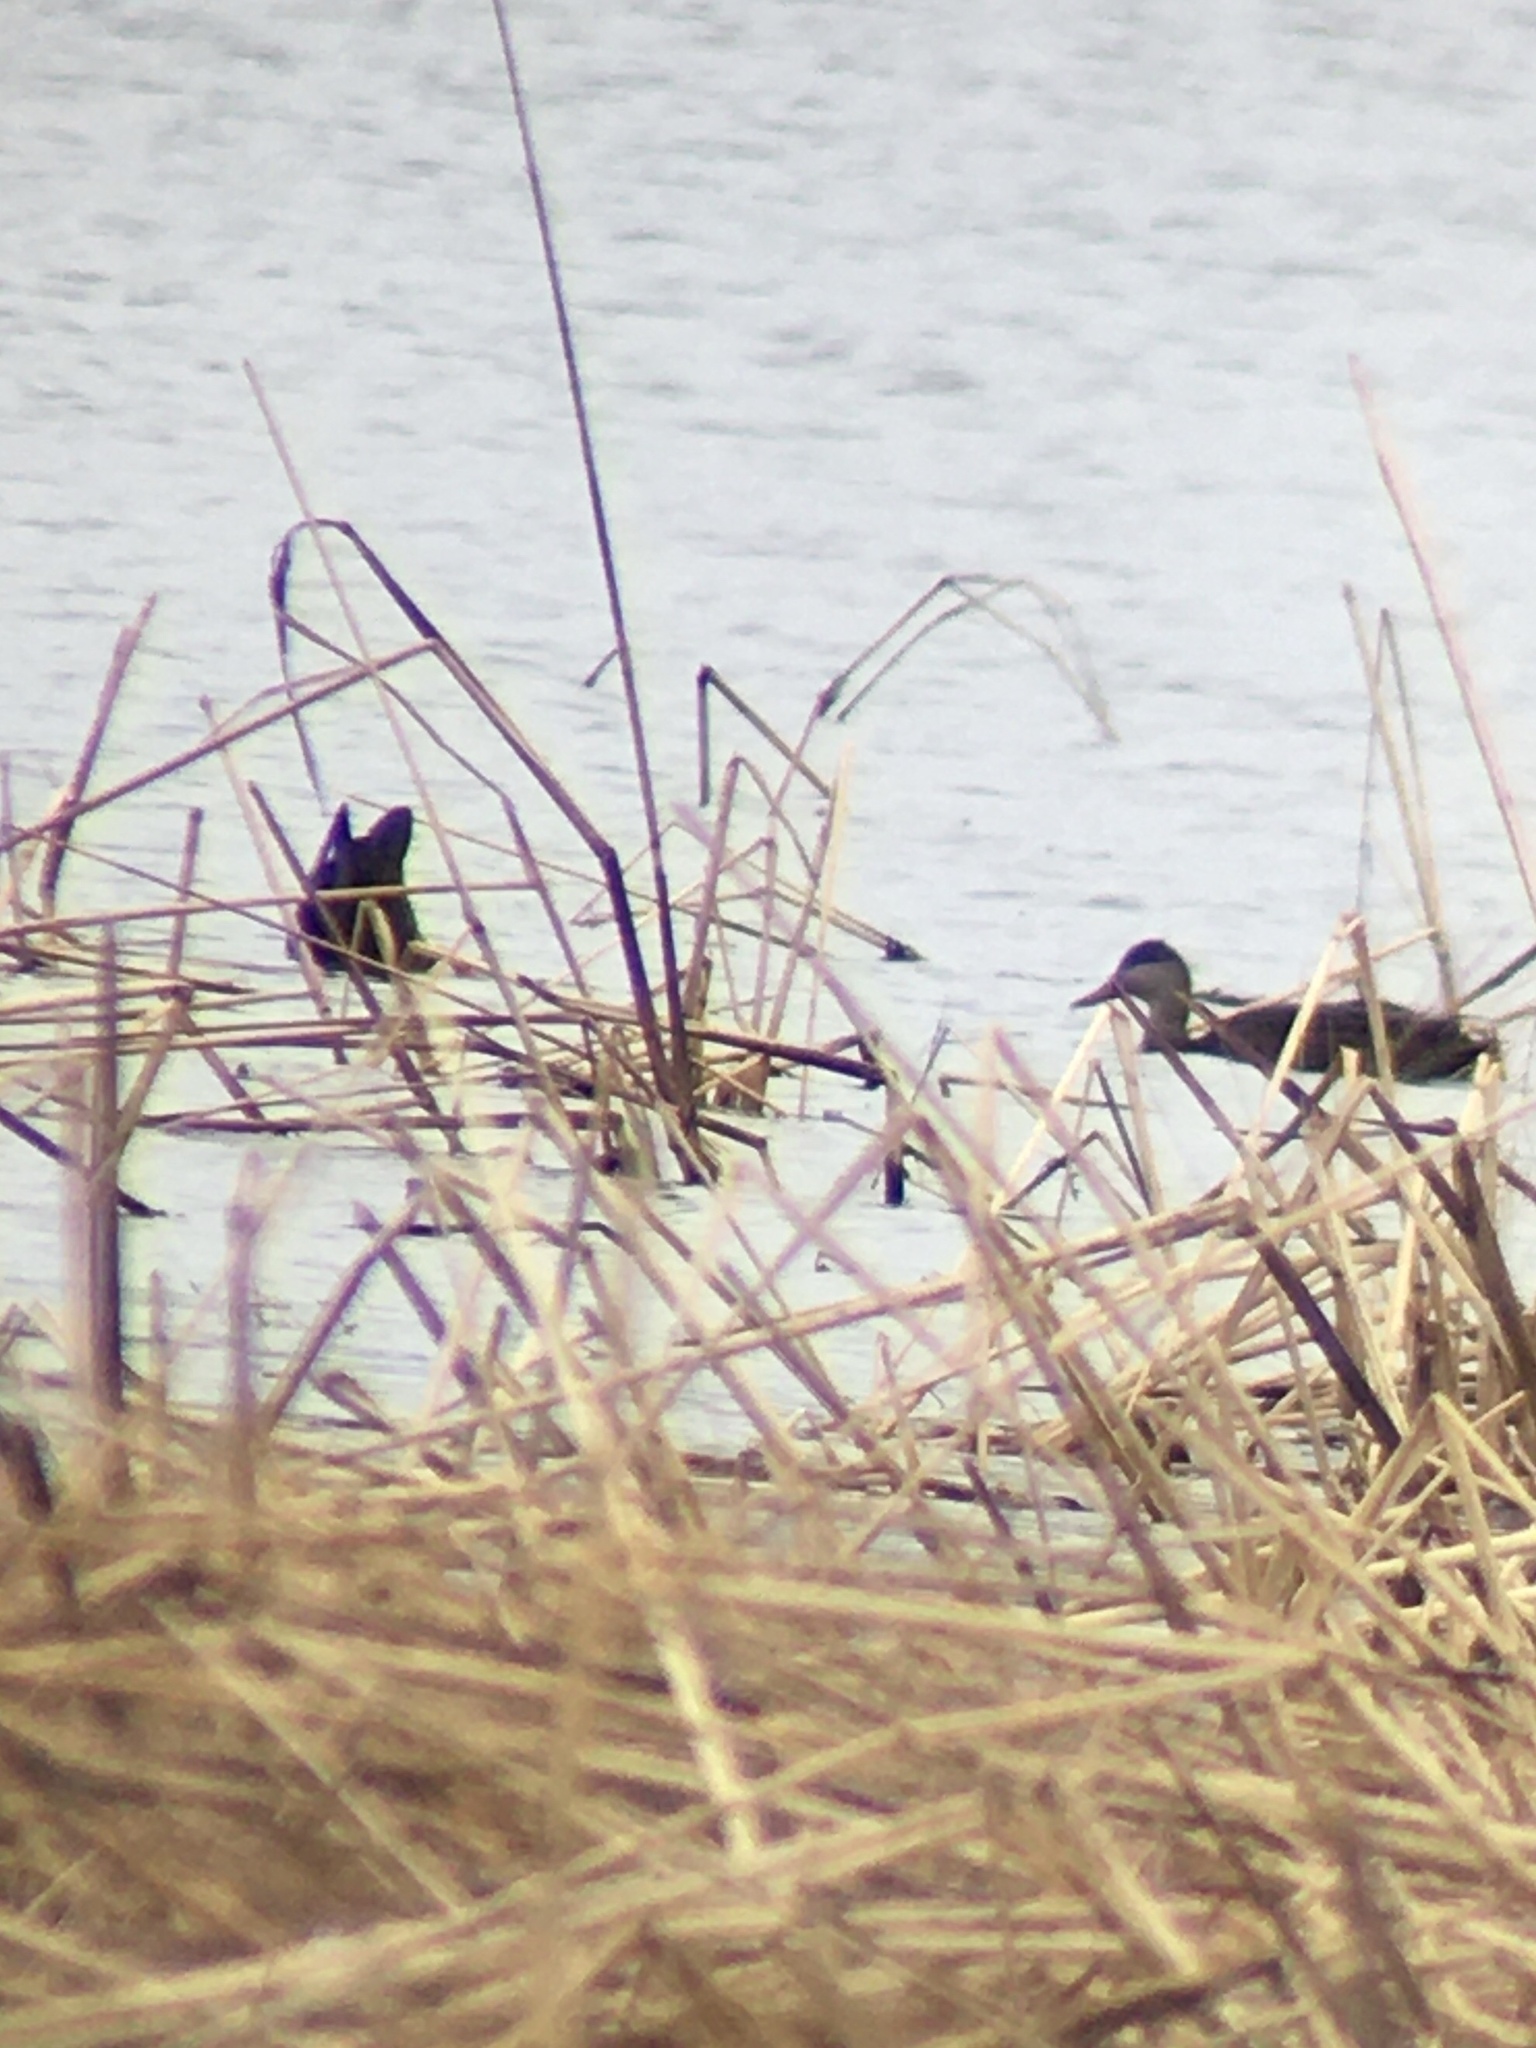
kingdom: Animalia
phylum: Chordata
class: Aves
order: Anseriformes
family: Anatidae
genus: Anas
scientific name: Anas rubripes
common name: American black duck
